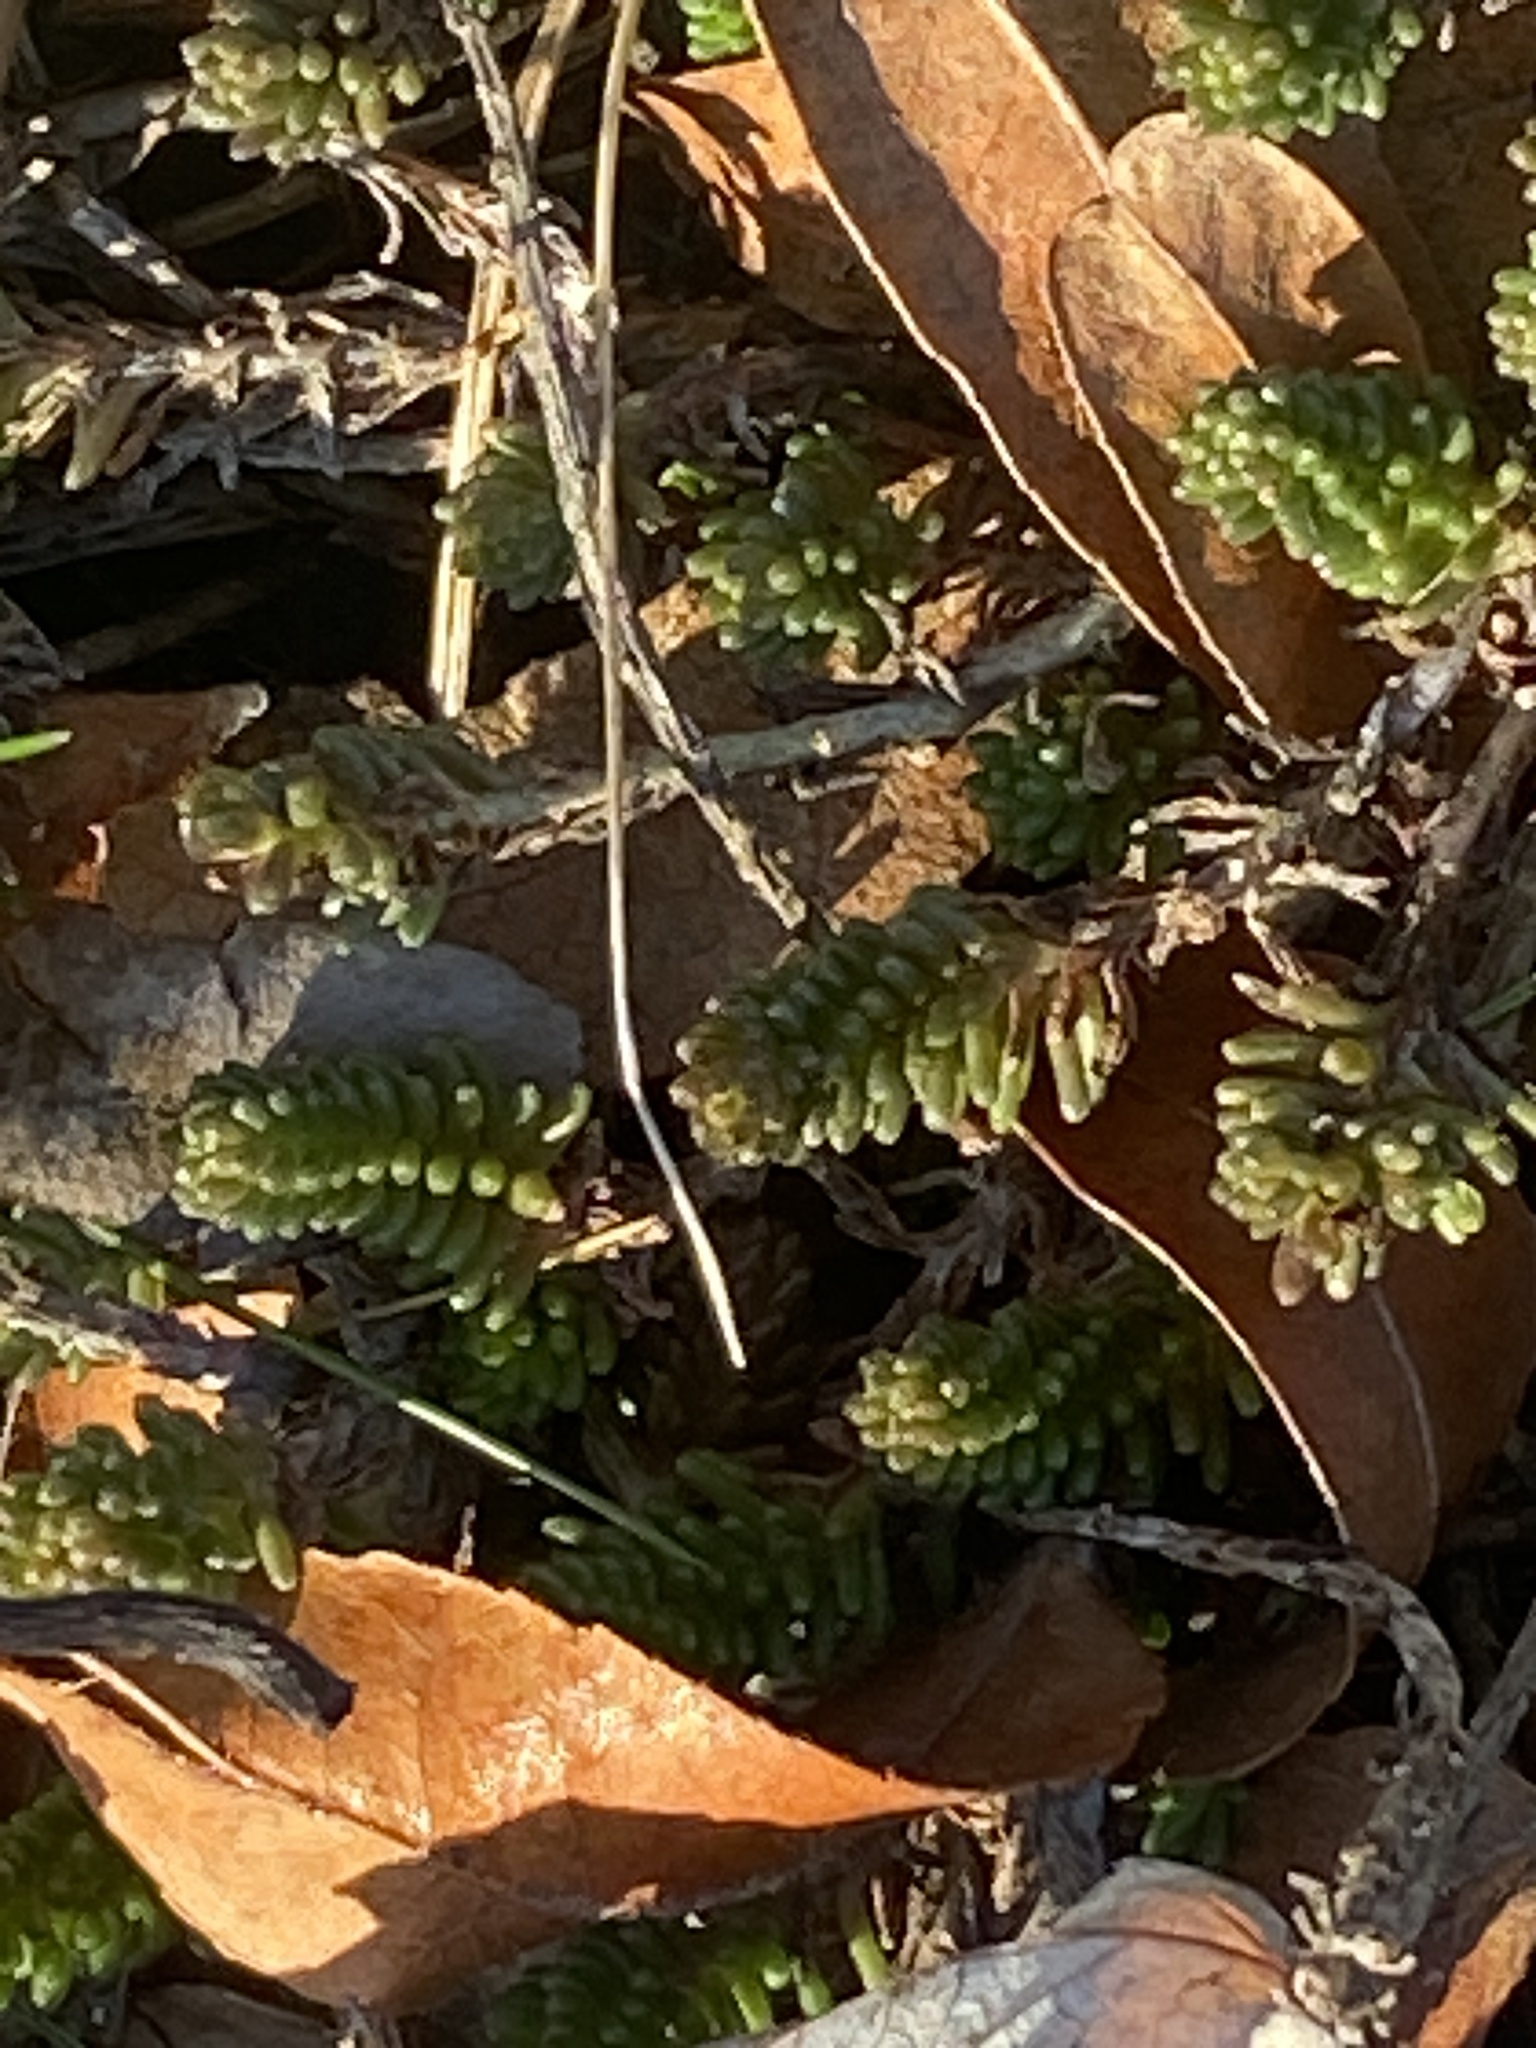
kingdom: Plantae
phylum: Tracheophyta
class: Magnoliopsida
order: Saxifragales
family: Crassulaceae
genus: Sedum
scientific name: Sedum sexangulare
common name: Tasteless stonecrop
